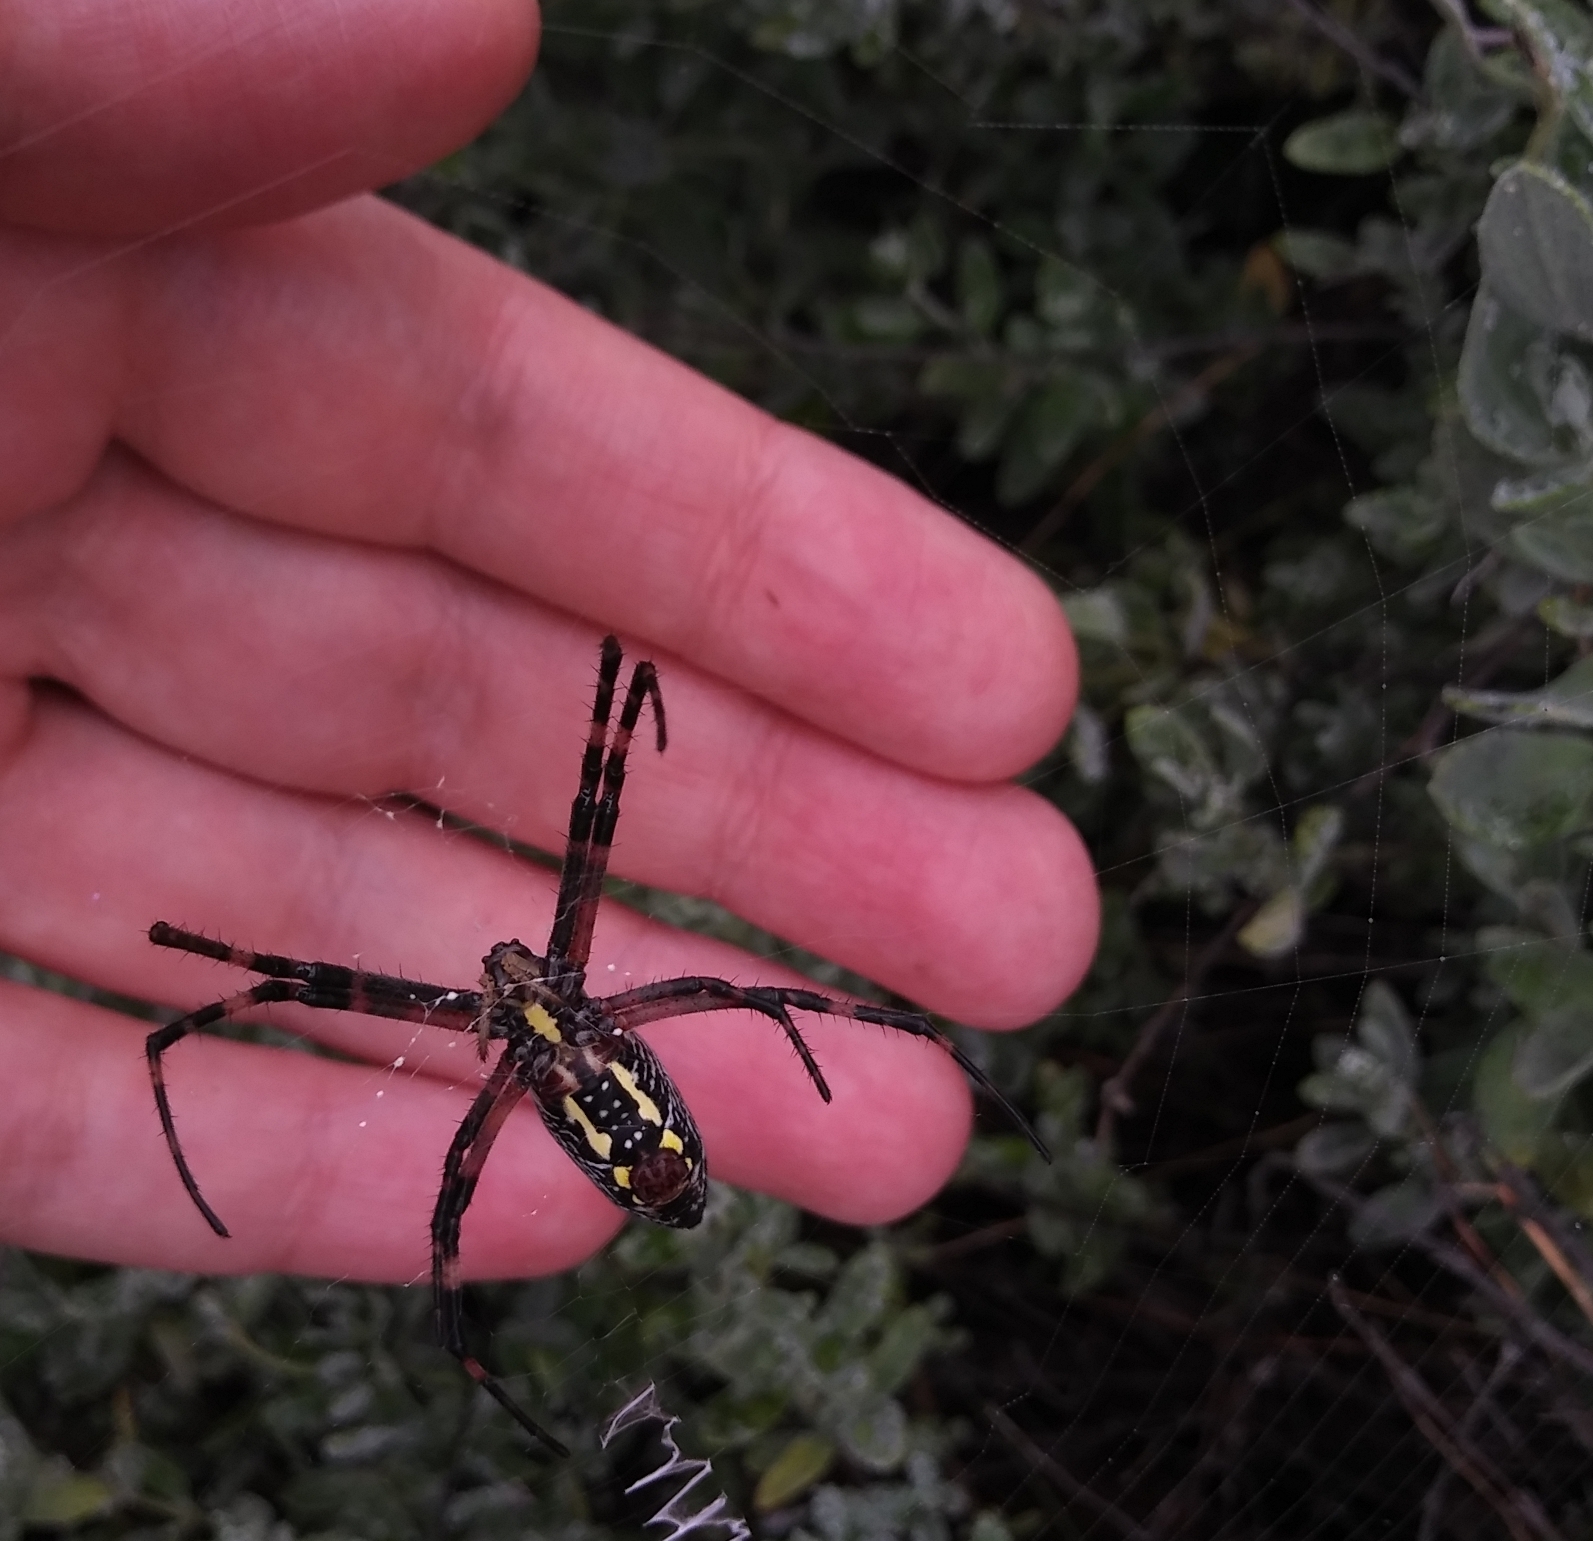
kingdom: Animalia
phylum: Arthropoda
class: Arachnida
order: Araneae
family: Araneidae
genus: Argiope
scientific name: Argiope aurantia
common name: Orb weavers
